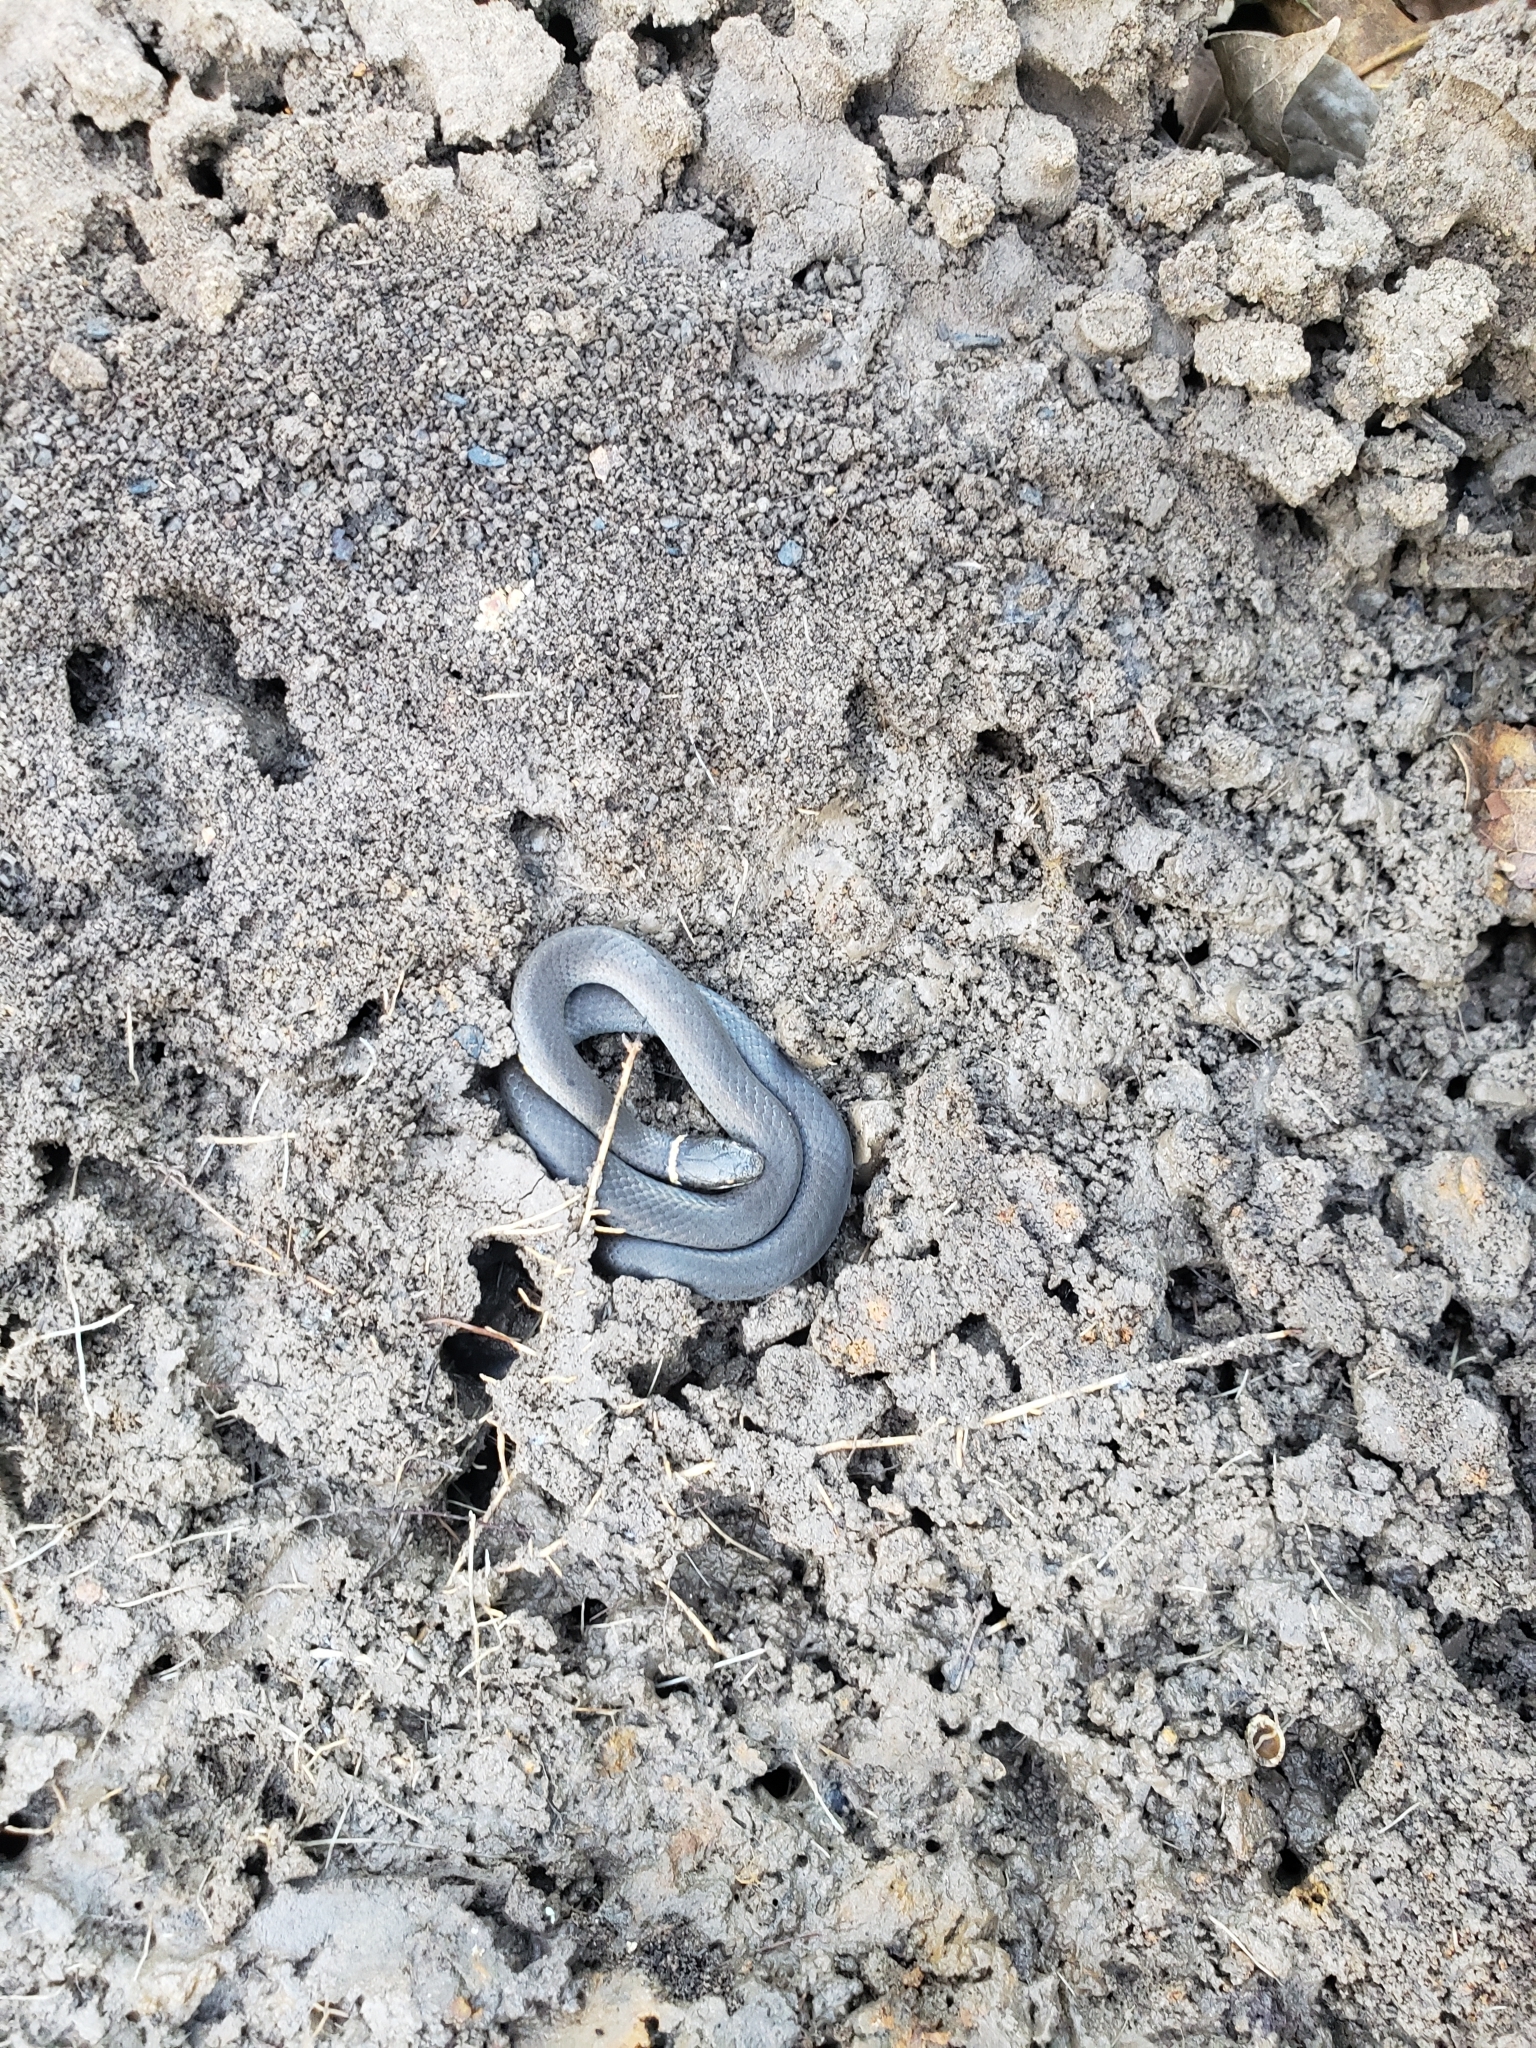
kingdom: Animalia
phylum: Chordata
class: Squamata
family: Colubridae
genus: Diadophis
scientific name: Diadophis punctatus
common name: Ringneck snake
